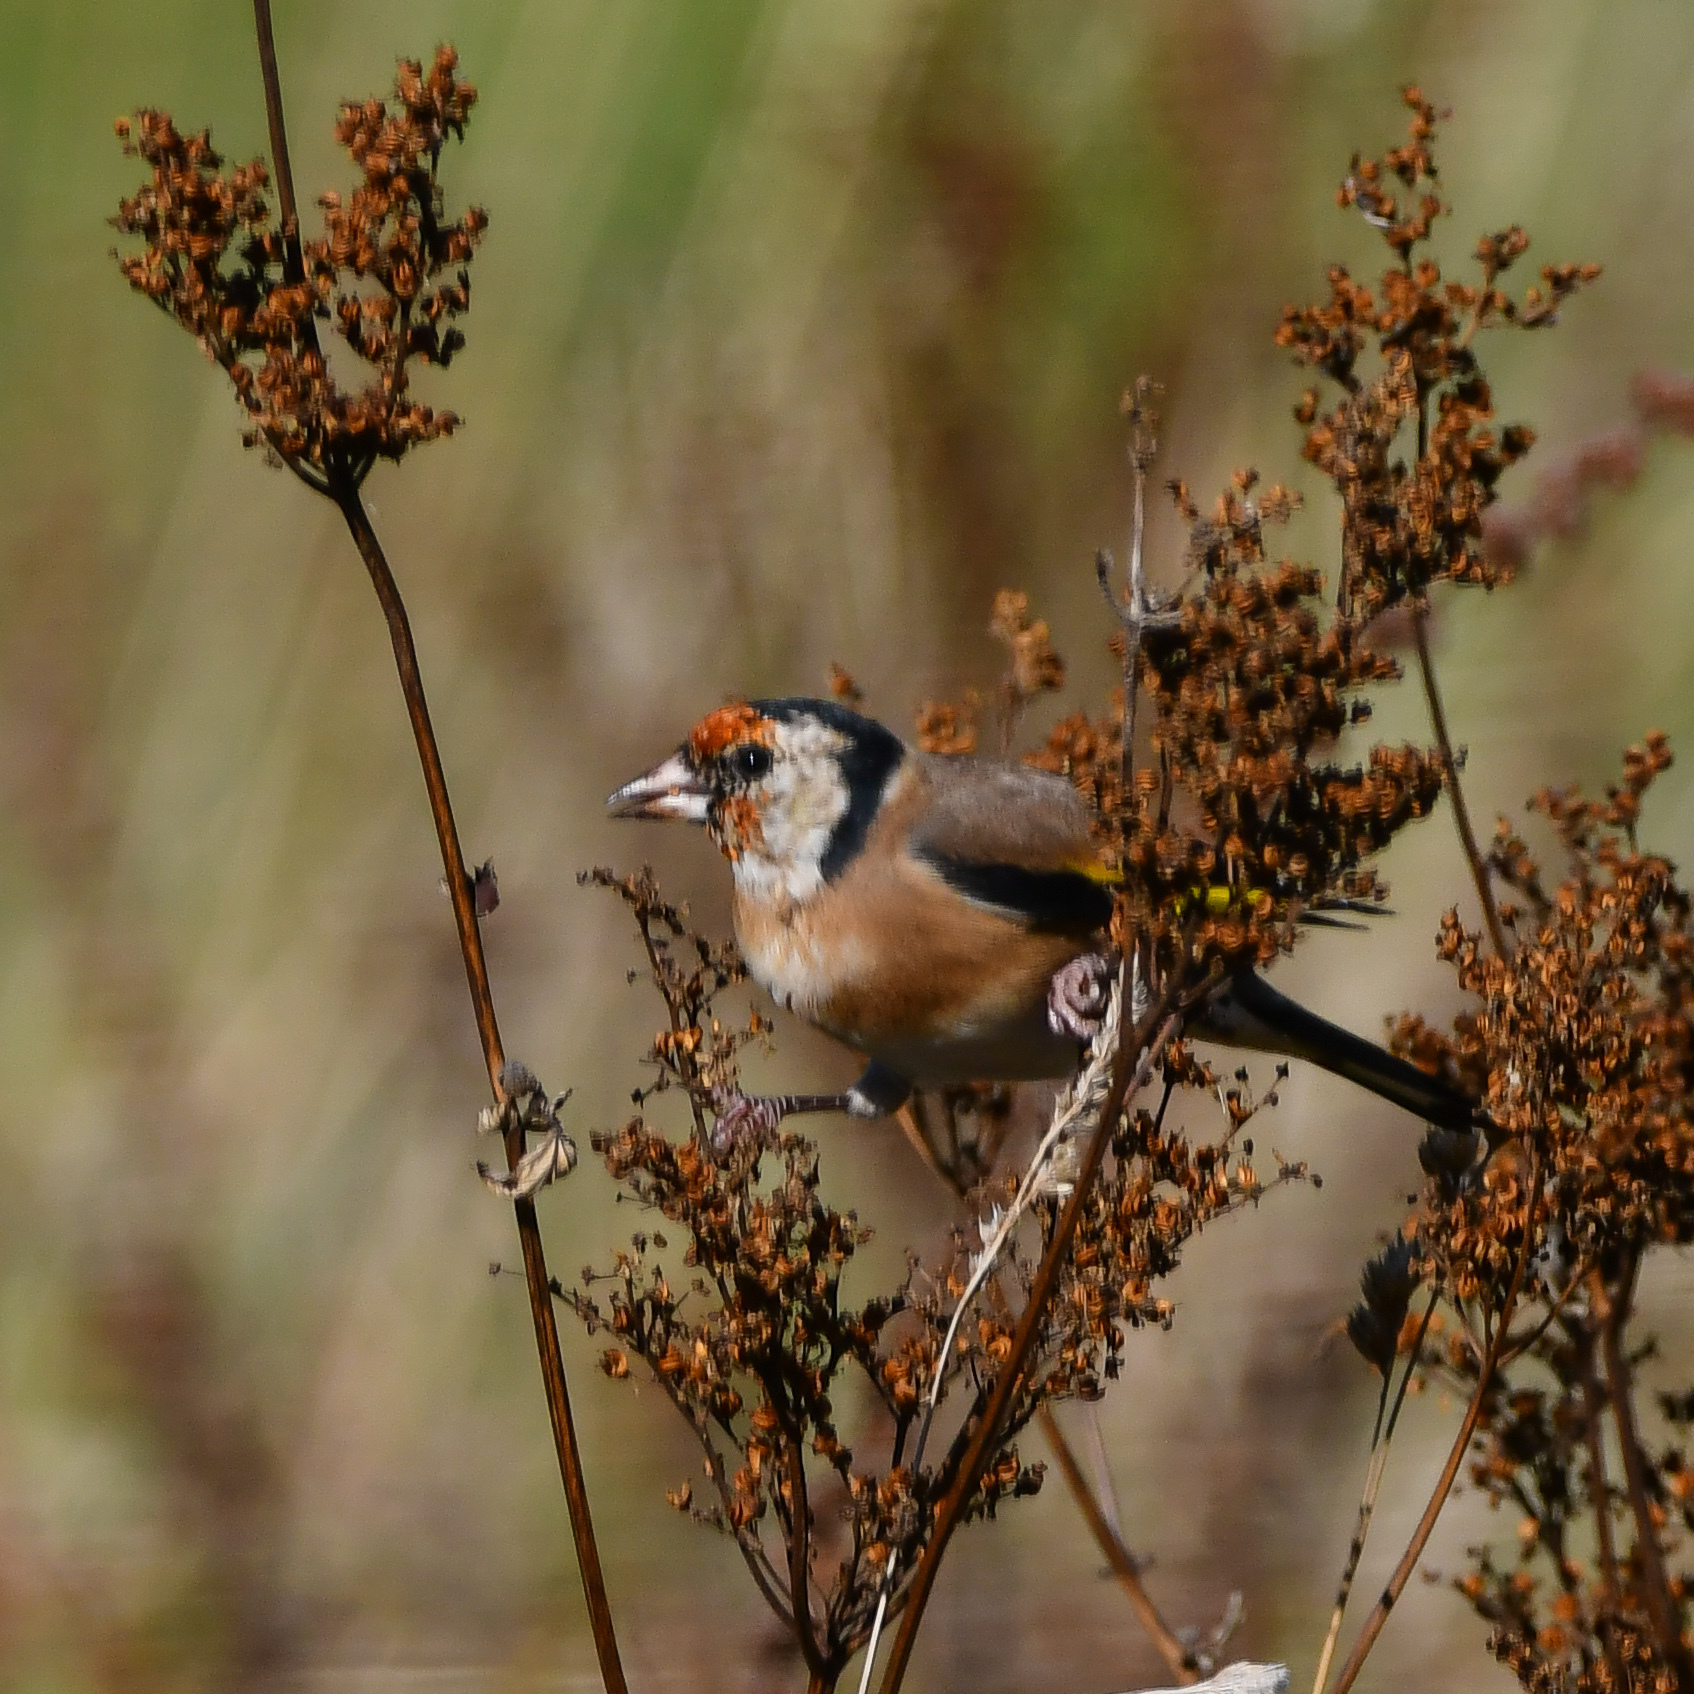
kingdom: Animalia
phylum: Chordata
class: Aves
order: Passeriformes
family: Fringillidae
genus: Carduelis
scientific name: Carduelis carduelis
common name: European goldfinch
